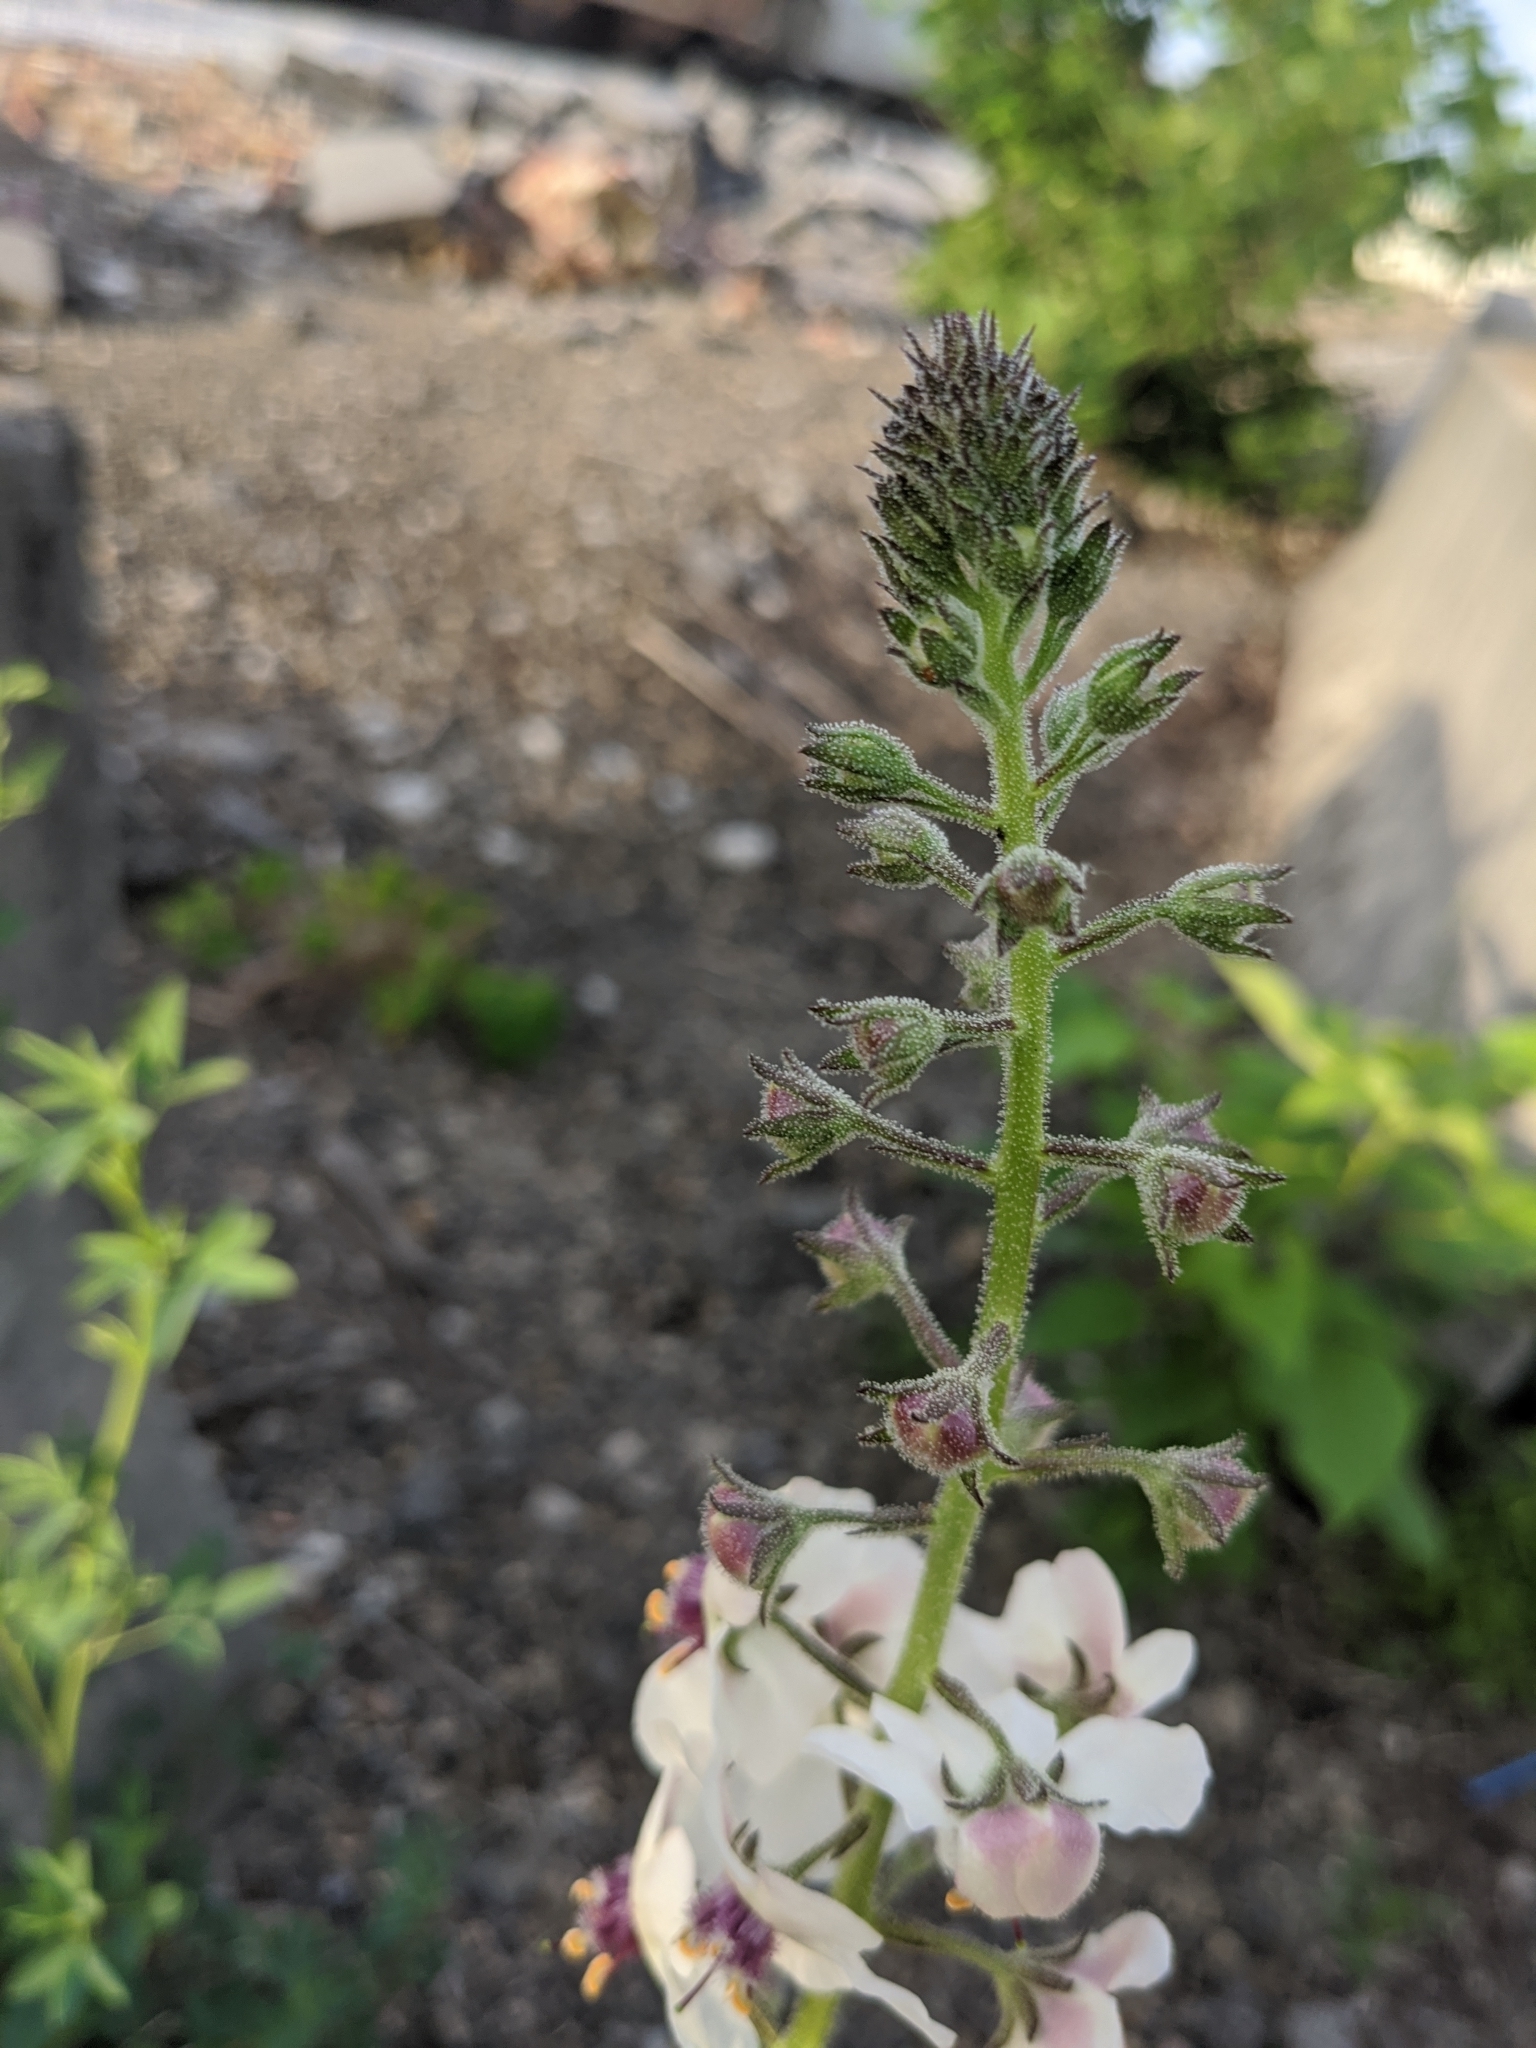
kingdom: Plantae
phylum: Tracheophyta
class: Magnoliopsida
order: Lamiales
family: Scrophulariaceae
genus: Verbascum
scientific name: Verbascum blattaria
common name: Moth mullein
